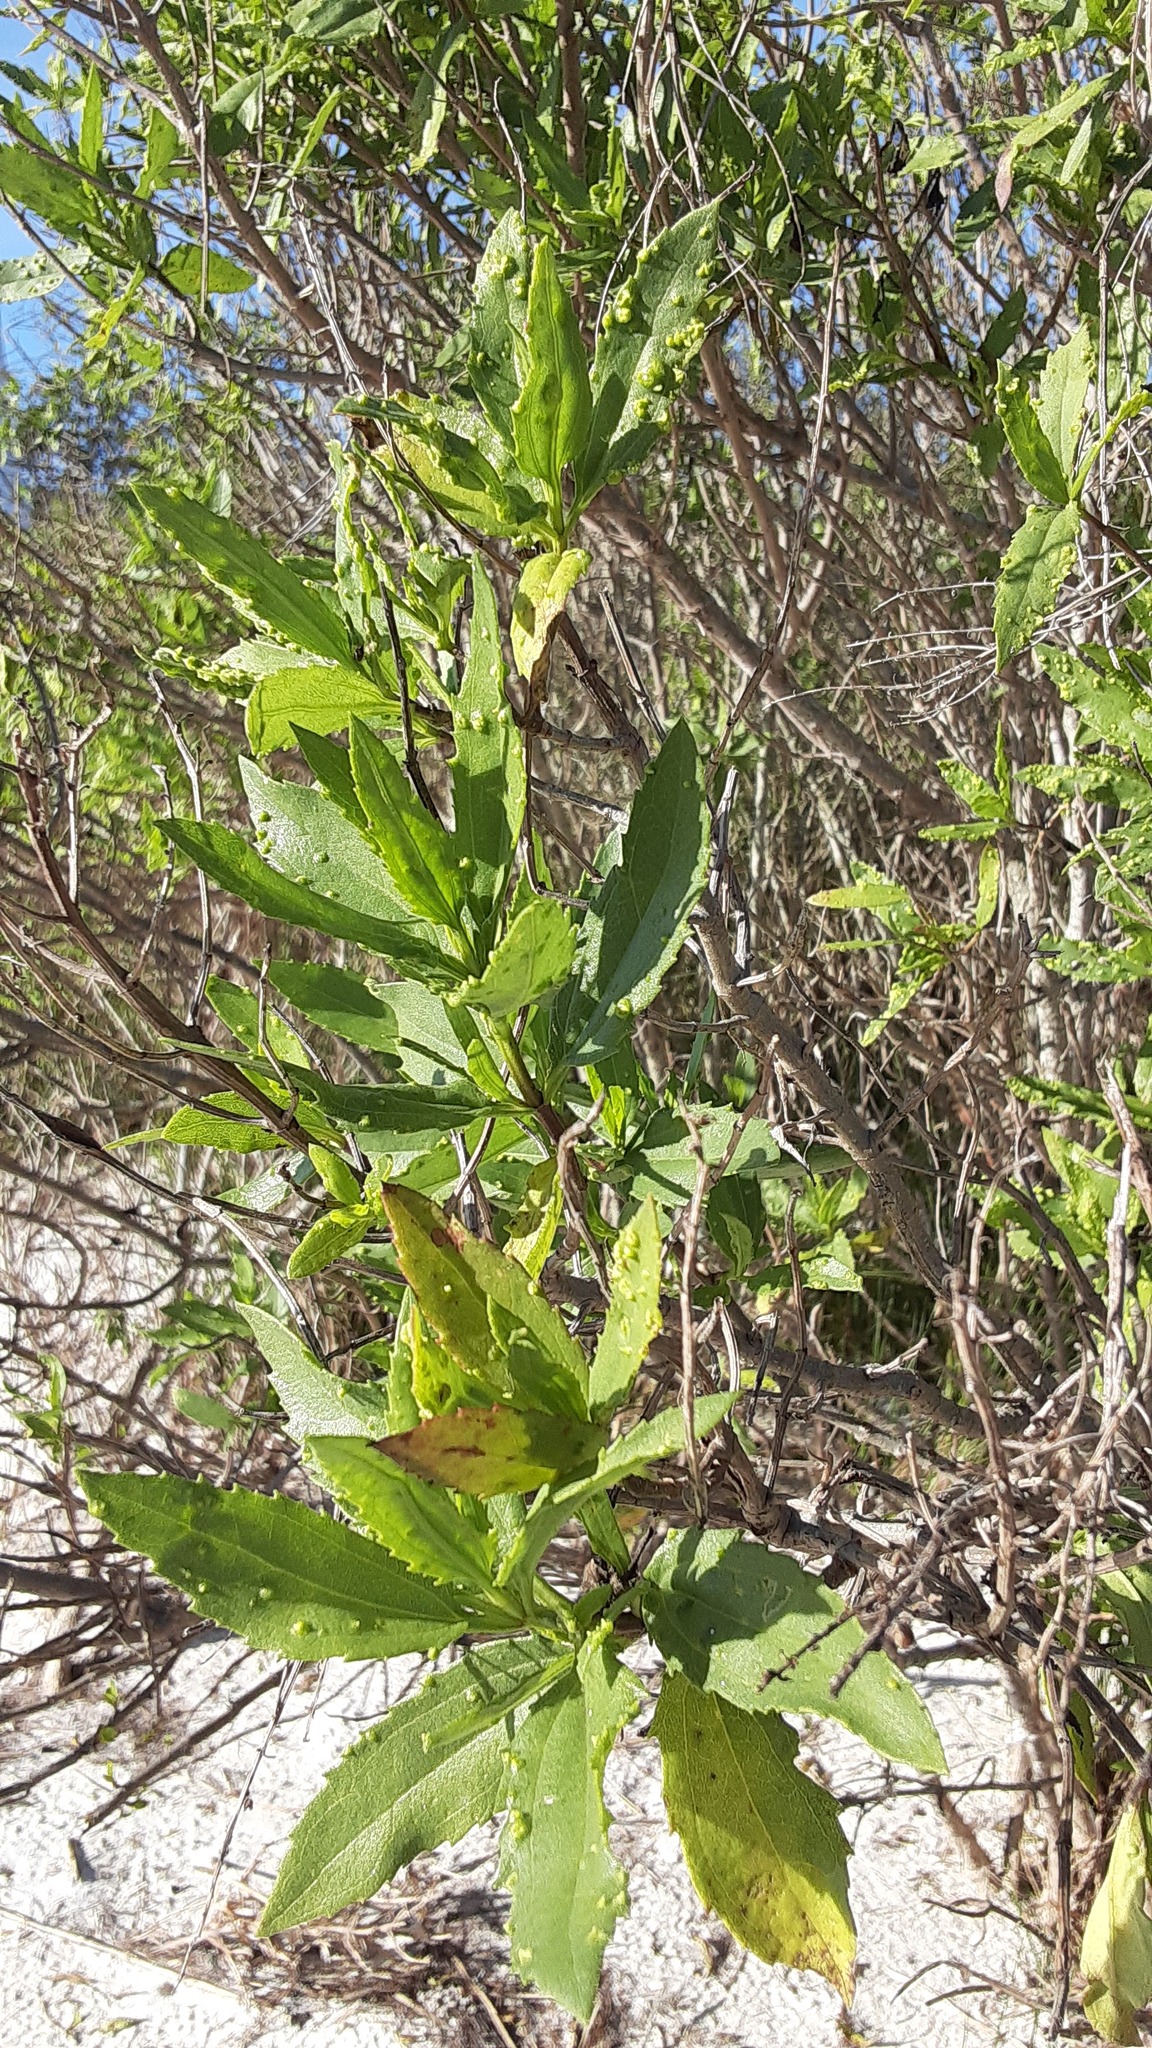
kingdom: Plantae
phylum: Tracheophyta
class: Magnoliopsida
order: Asterales
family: Asteraceae
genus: Iva
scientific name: Iva frutescens
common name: Big-leaved marsh-elder
